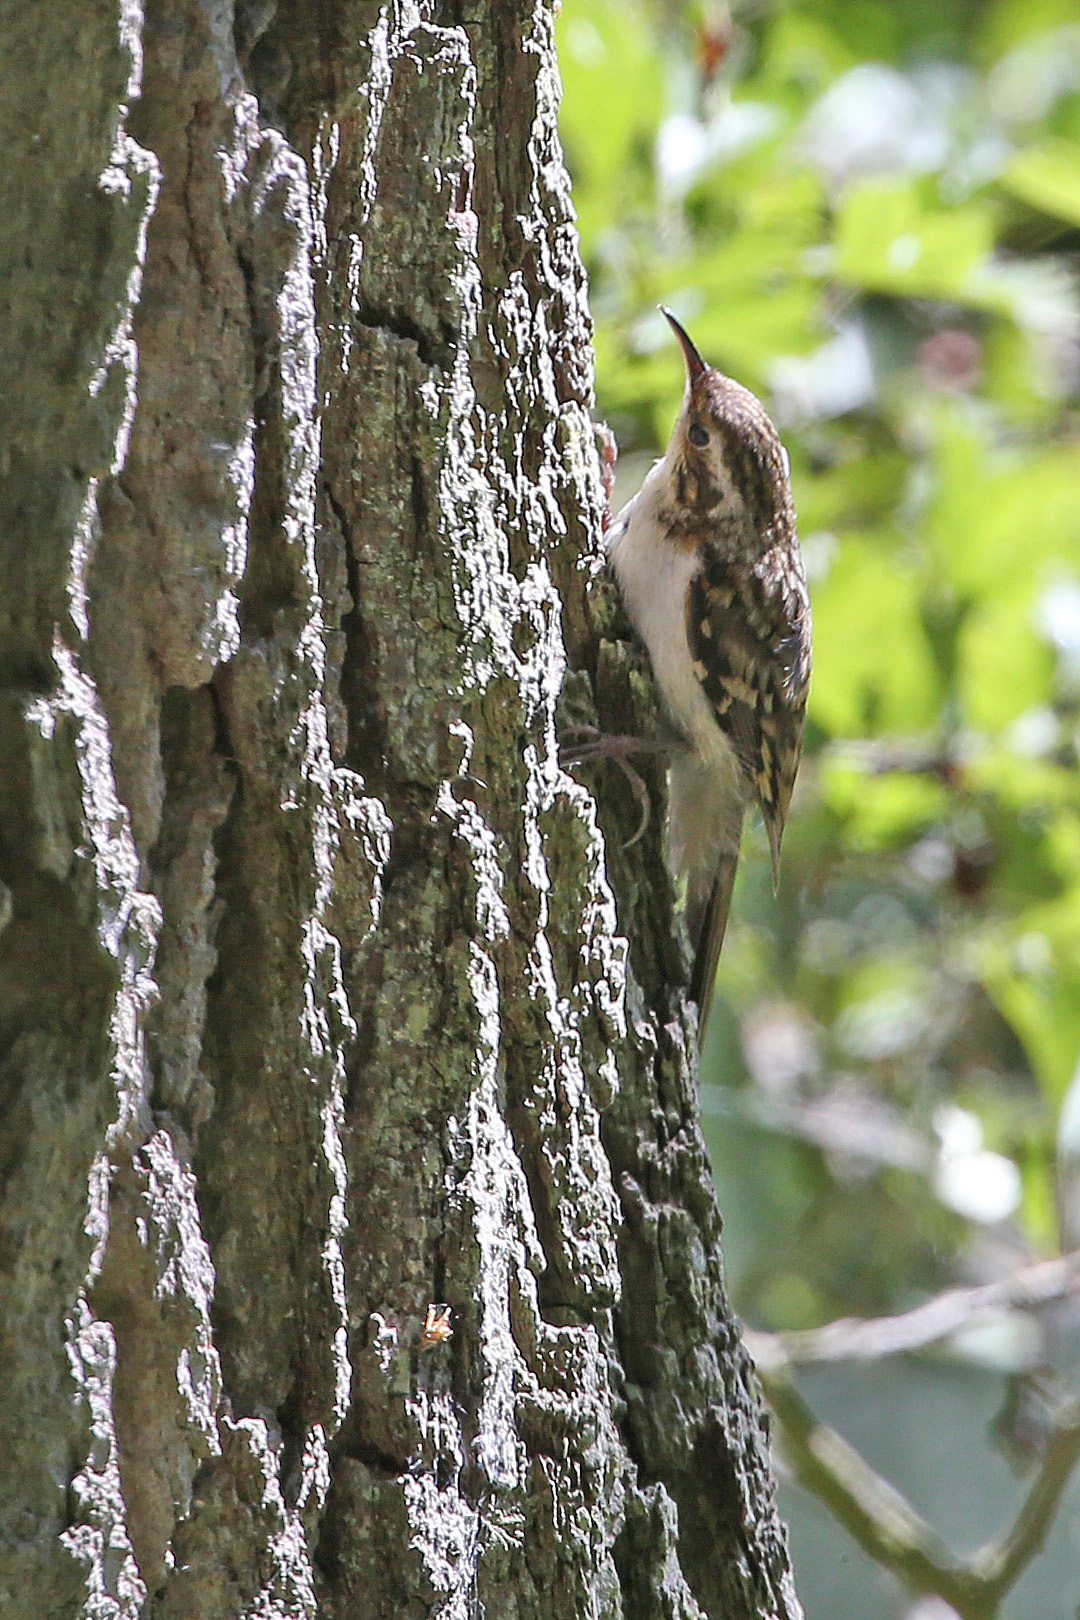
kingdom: Animalia
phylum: Chordata
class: Aves
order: Passeriformes
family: Certhiidae
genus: Certhia
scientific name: Certhia familiaris
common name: Eurasian treecreeper
